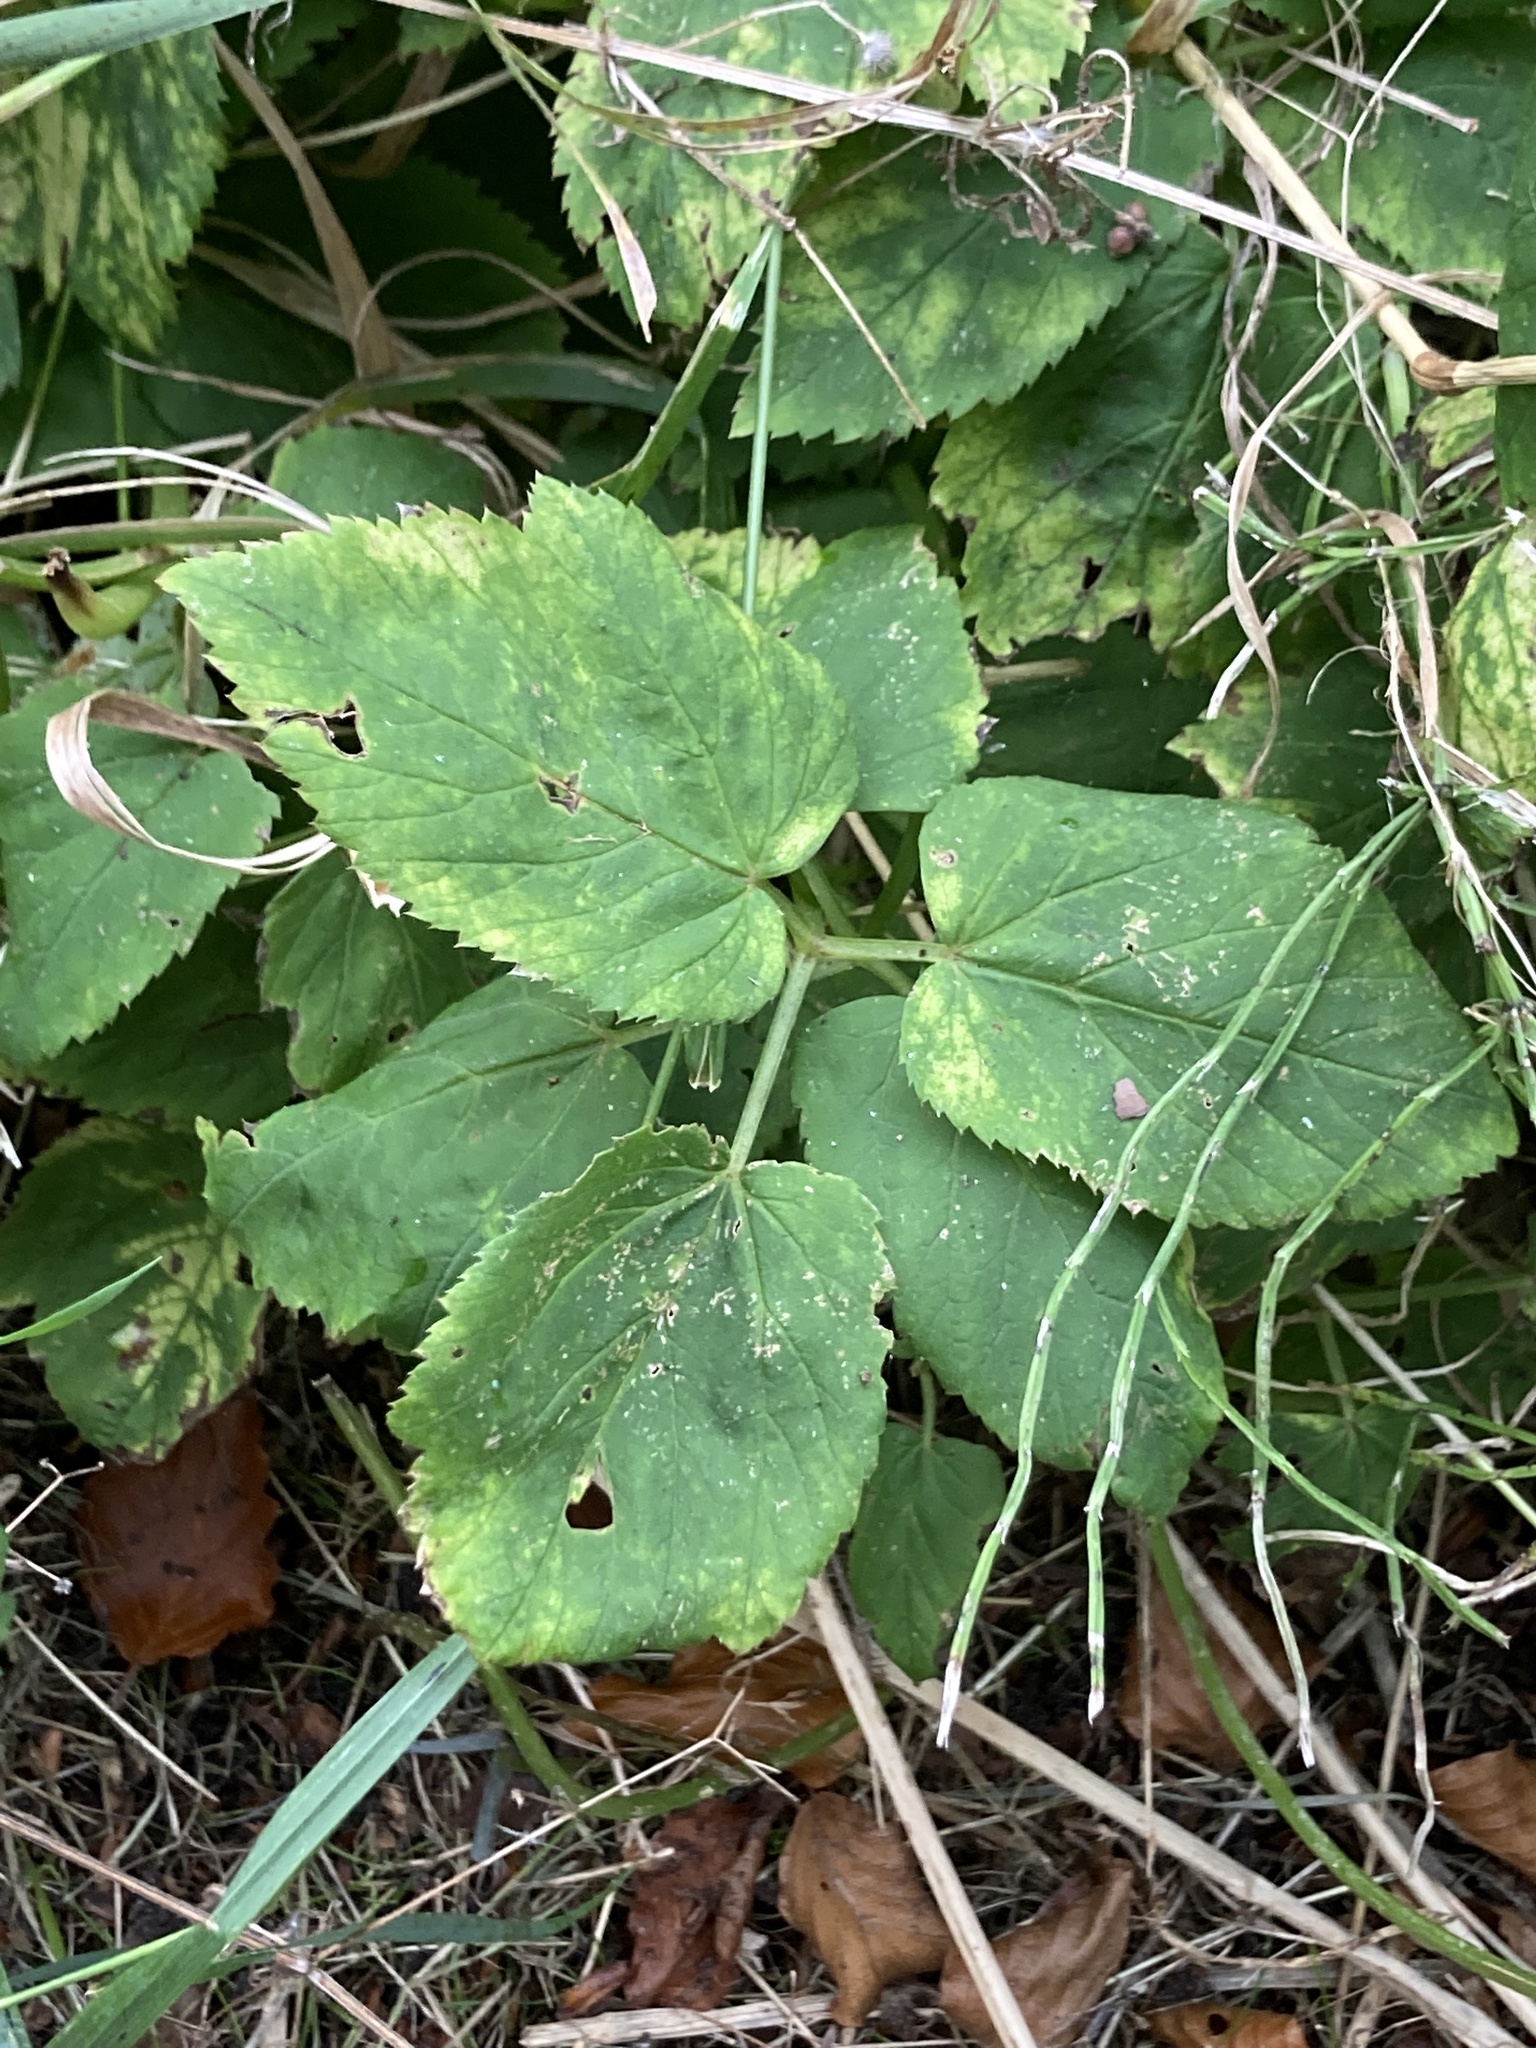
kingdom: Plantae
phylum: Tracheophyta
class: Magnoliopsida
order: Apiales
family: Apiaceae
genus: Aegopodium
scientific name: Aegopodium podagraria
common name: Ground-elder
